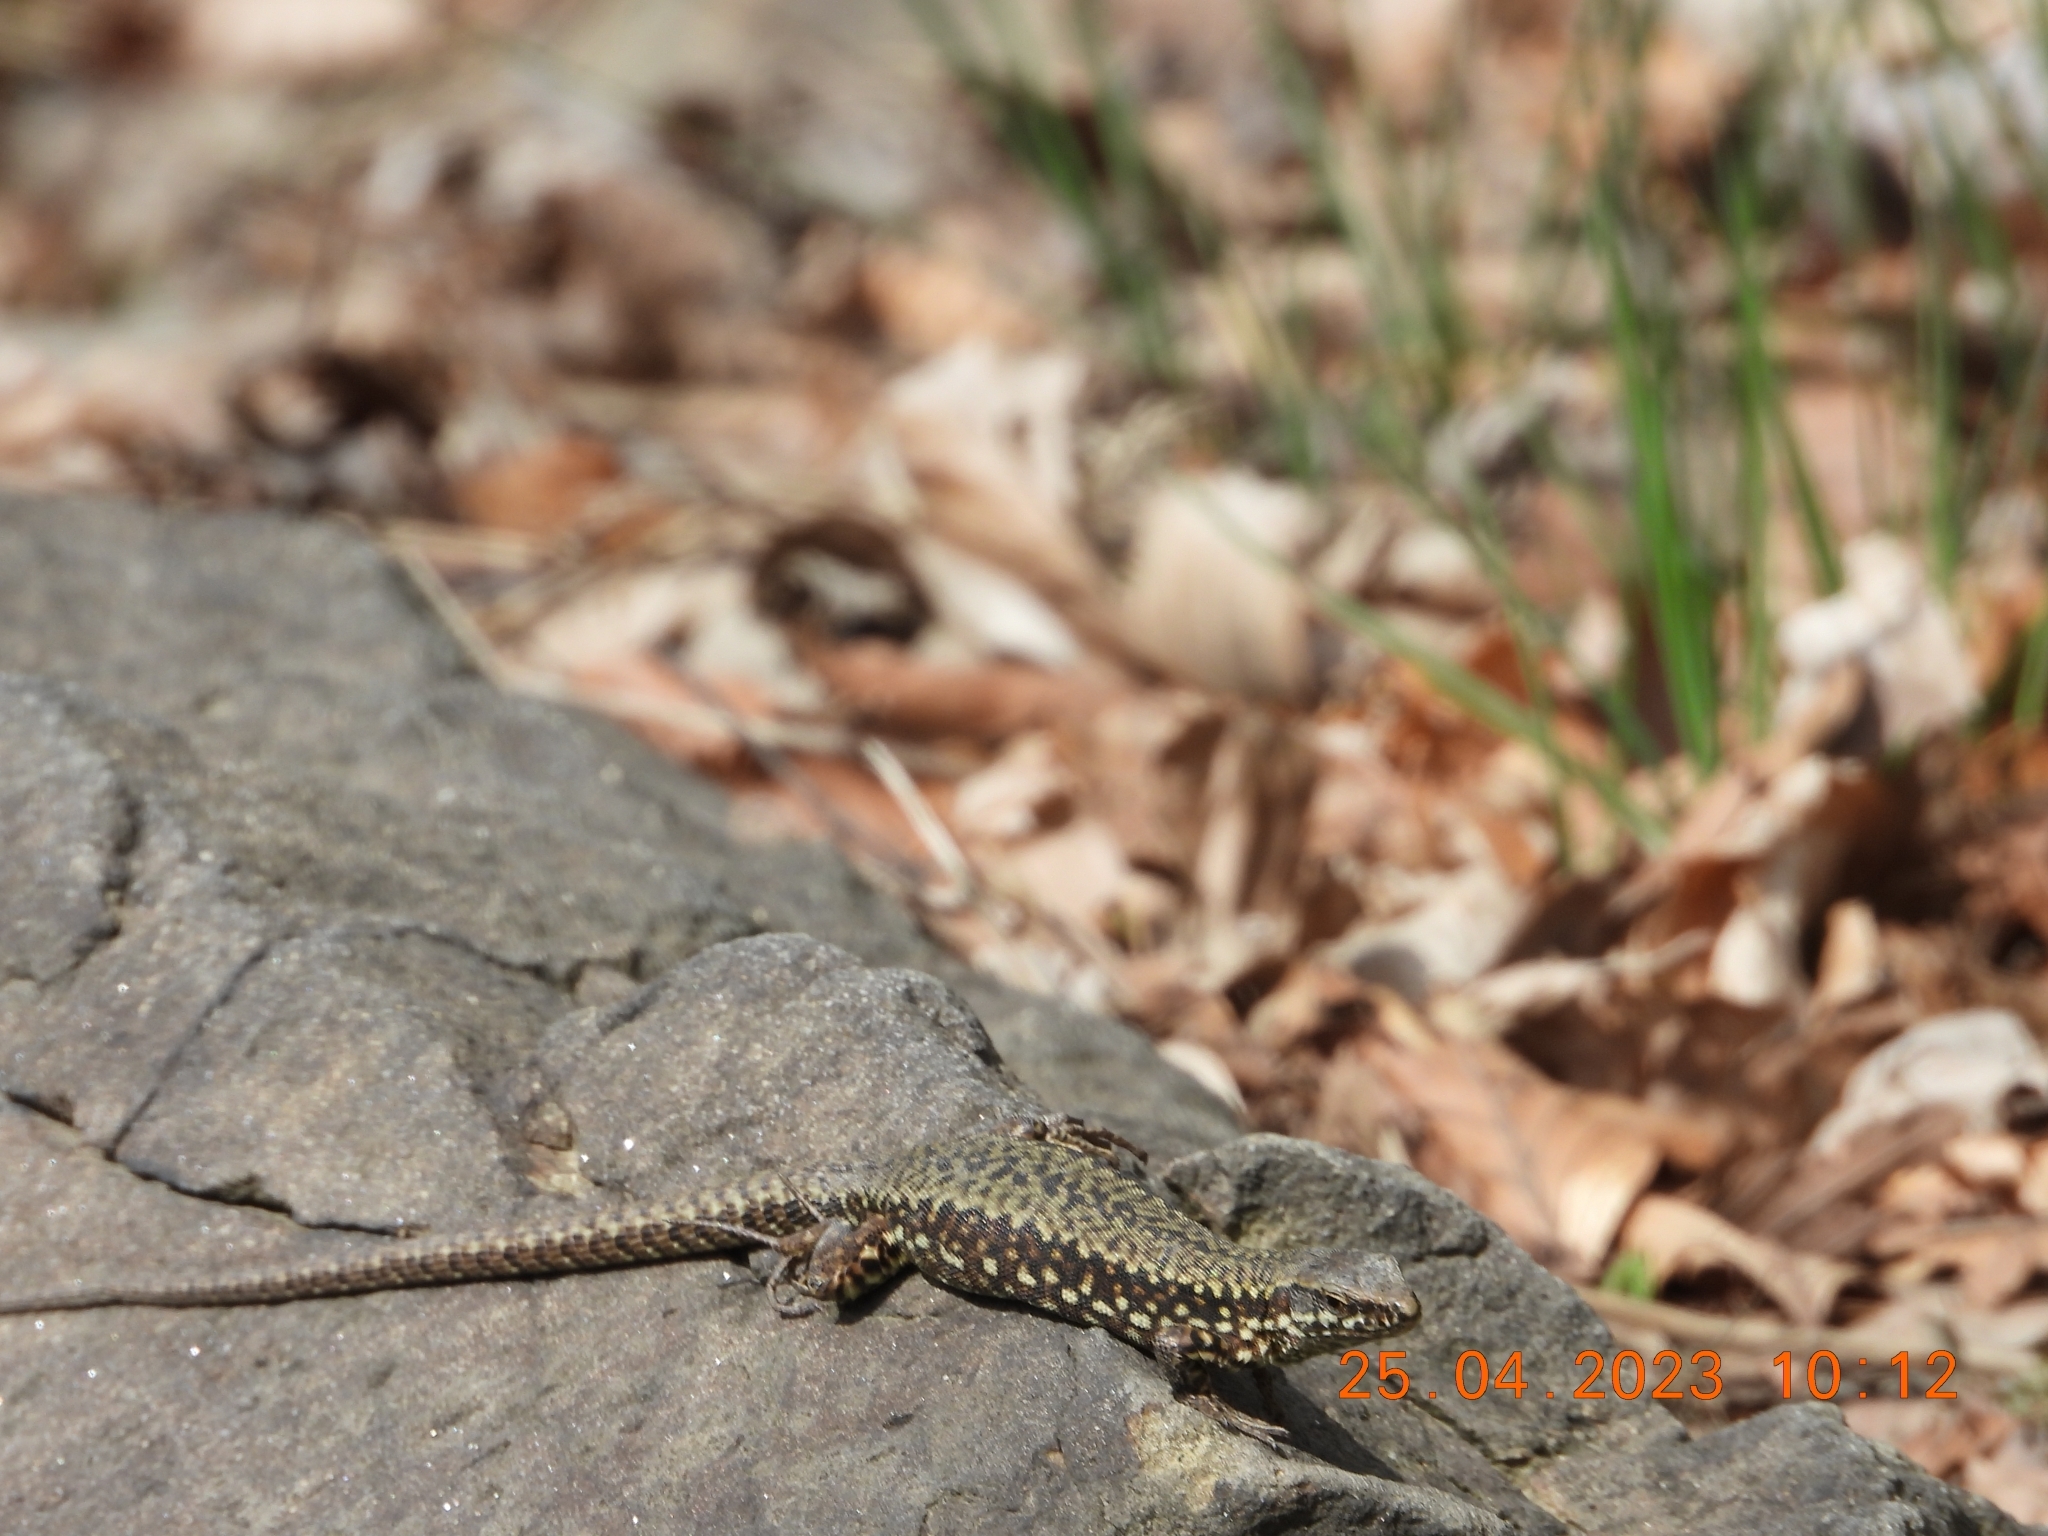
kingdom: Animalia
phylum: Chordata
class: Squamata
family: Lacertidae
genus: Podarcis
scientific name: Podarcis muralis
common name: Common wall lizard
